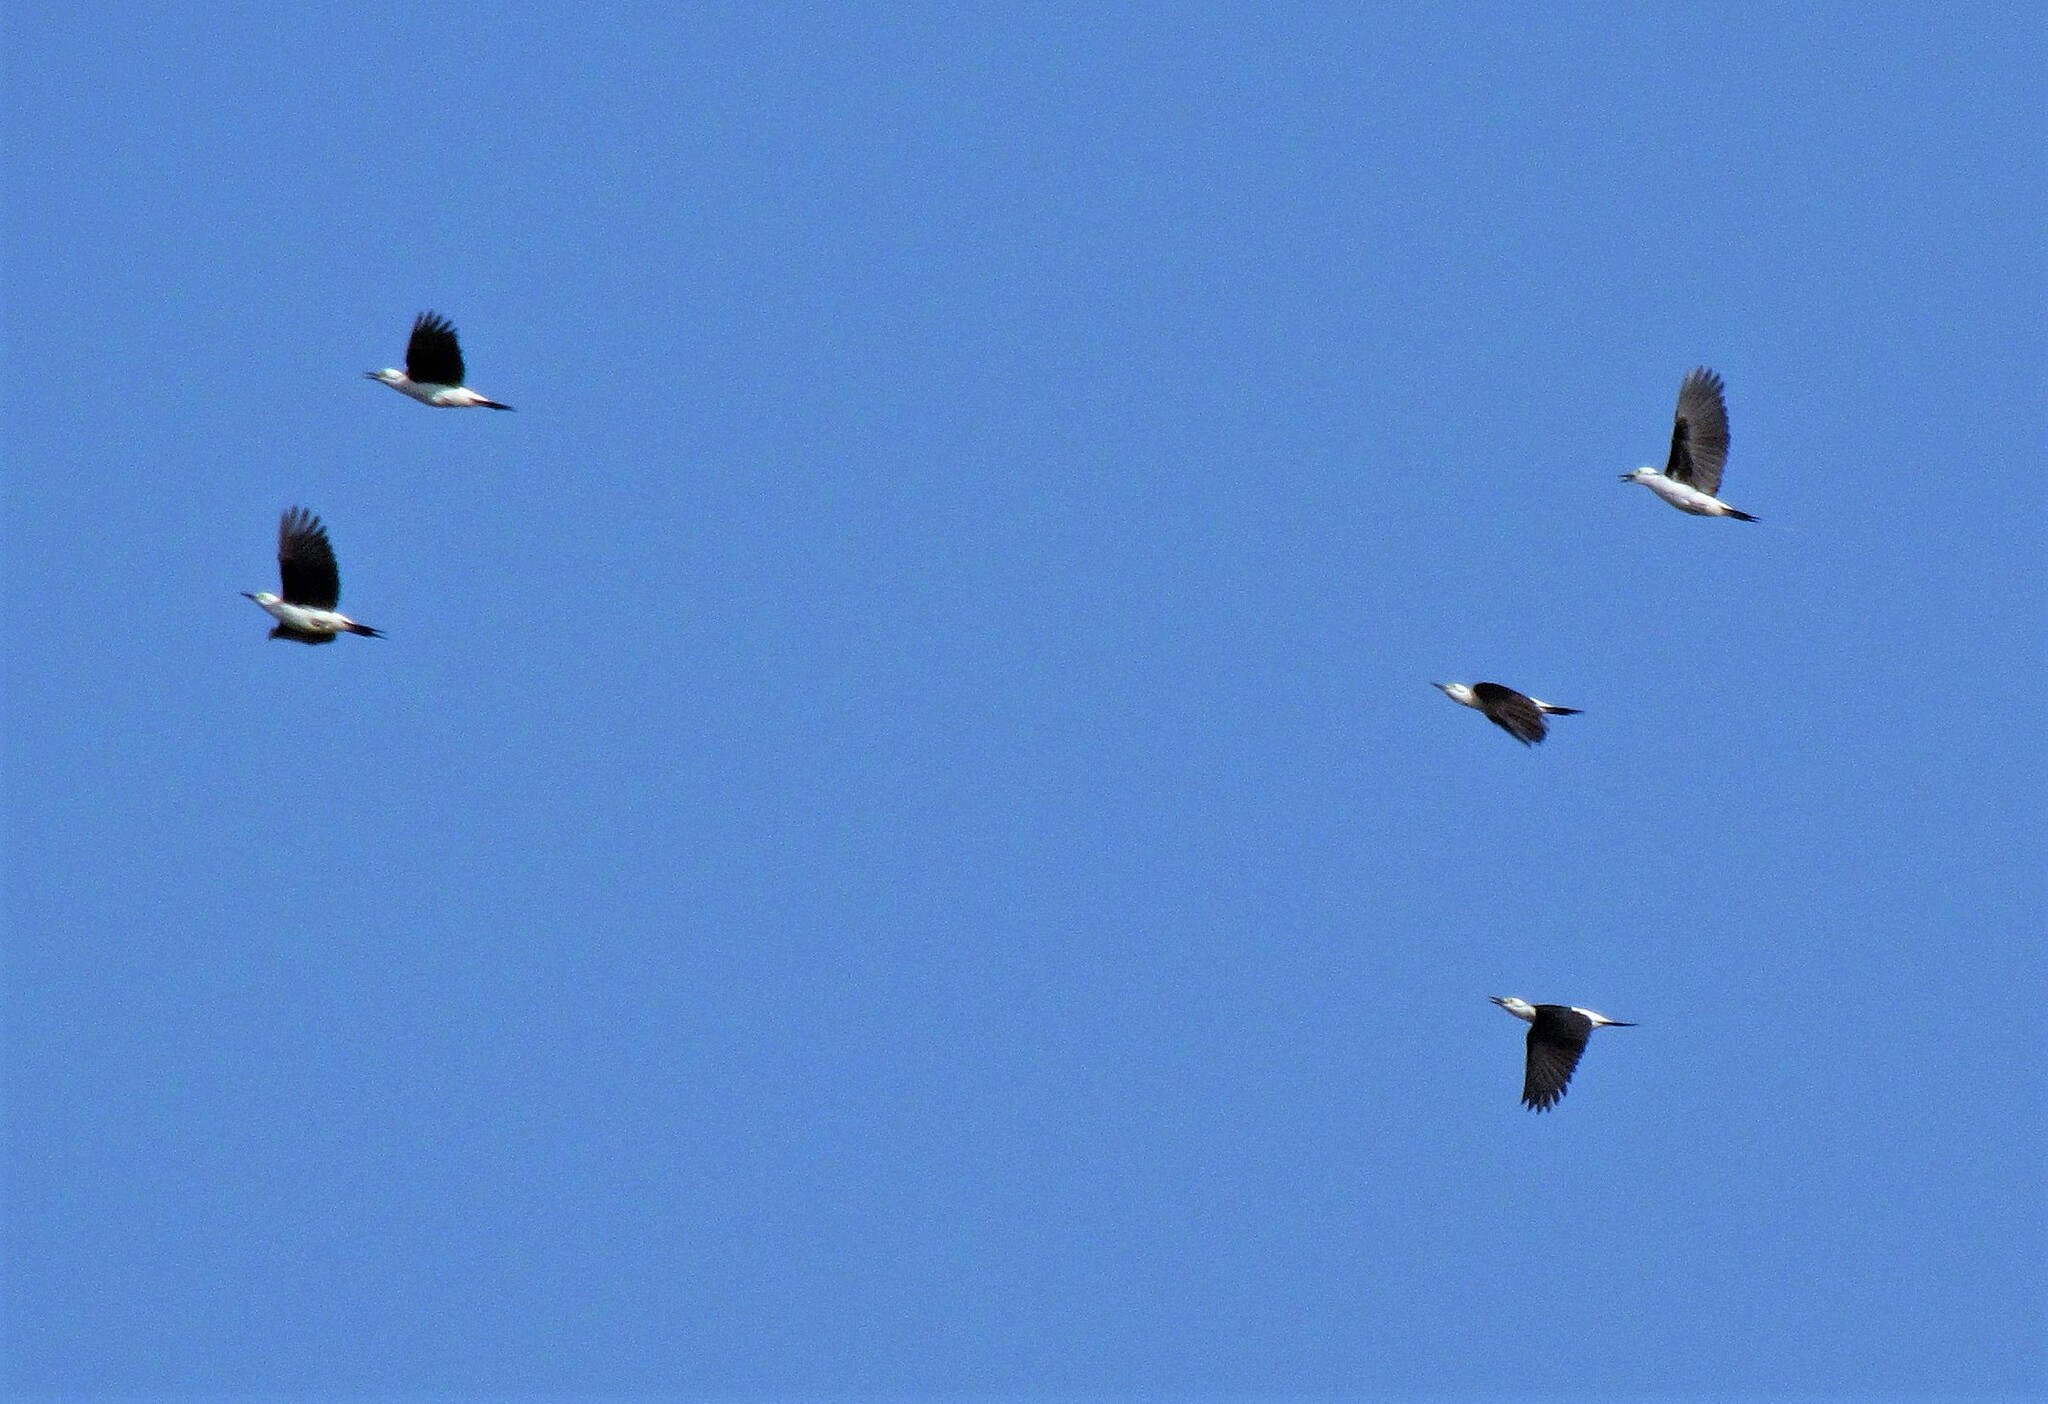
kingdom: Animalia
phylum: Chordata
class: Aves
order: Piciformes
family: Picidae
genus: Melanerpes
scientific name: Melanerpes candidus
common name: White woodpecker
